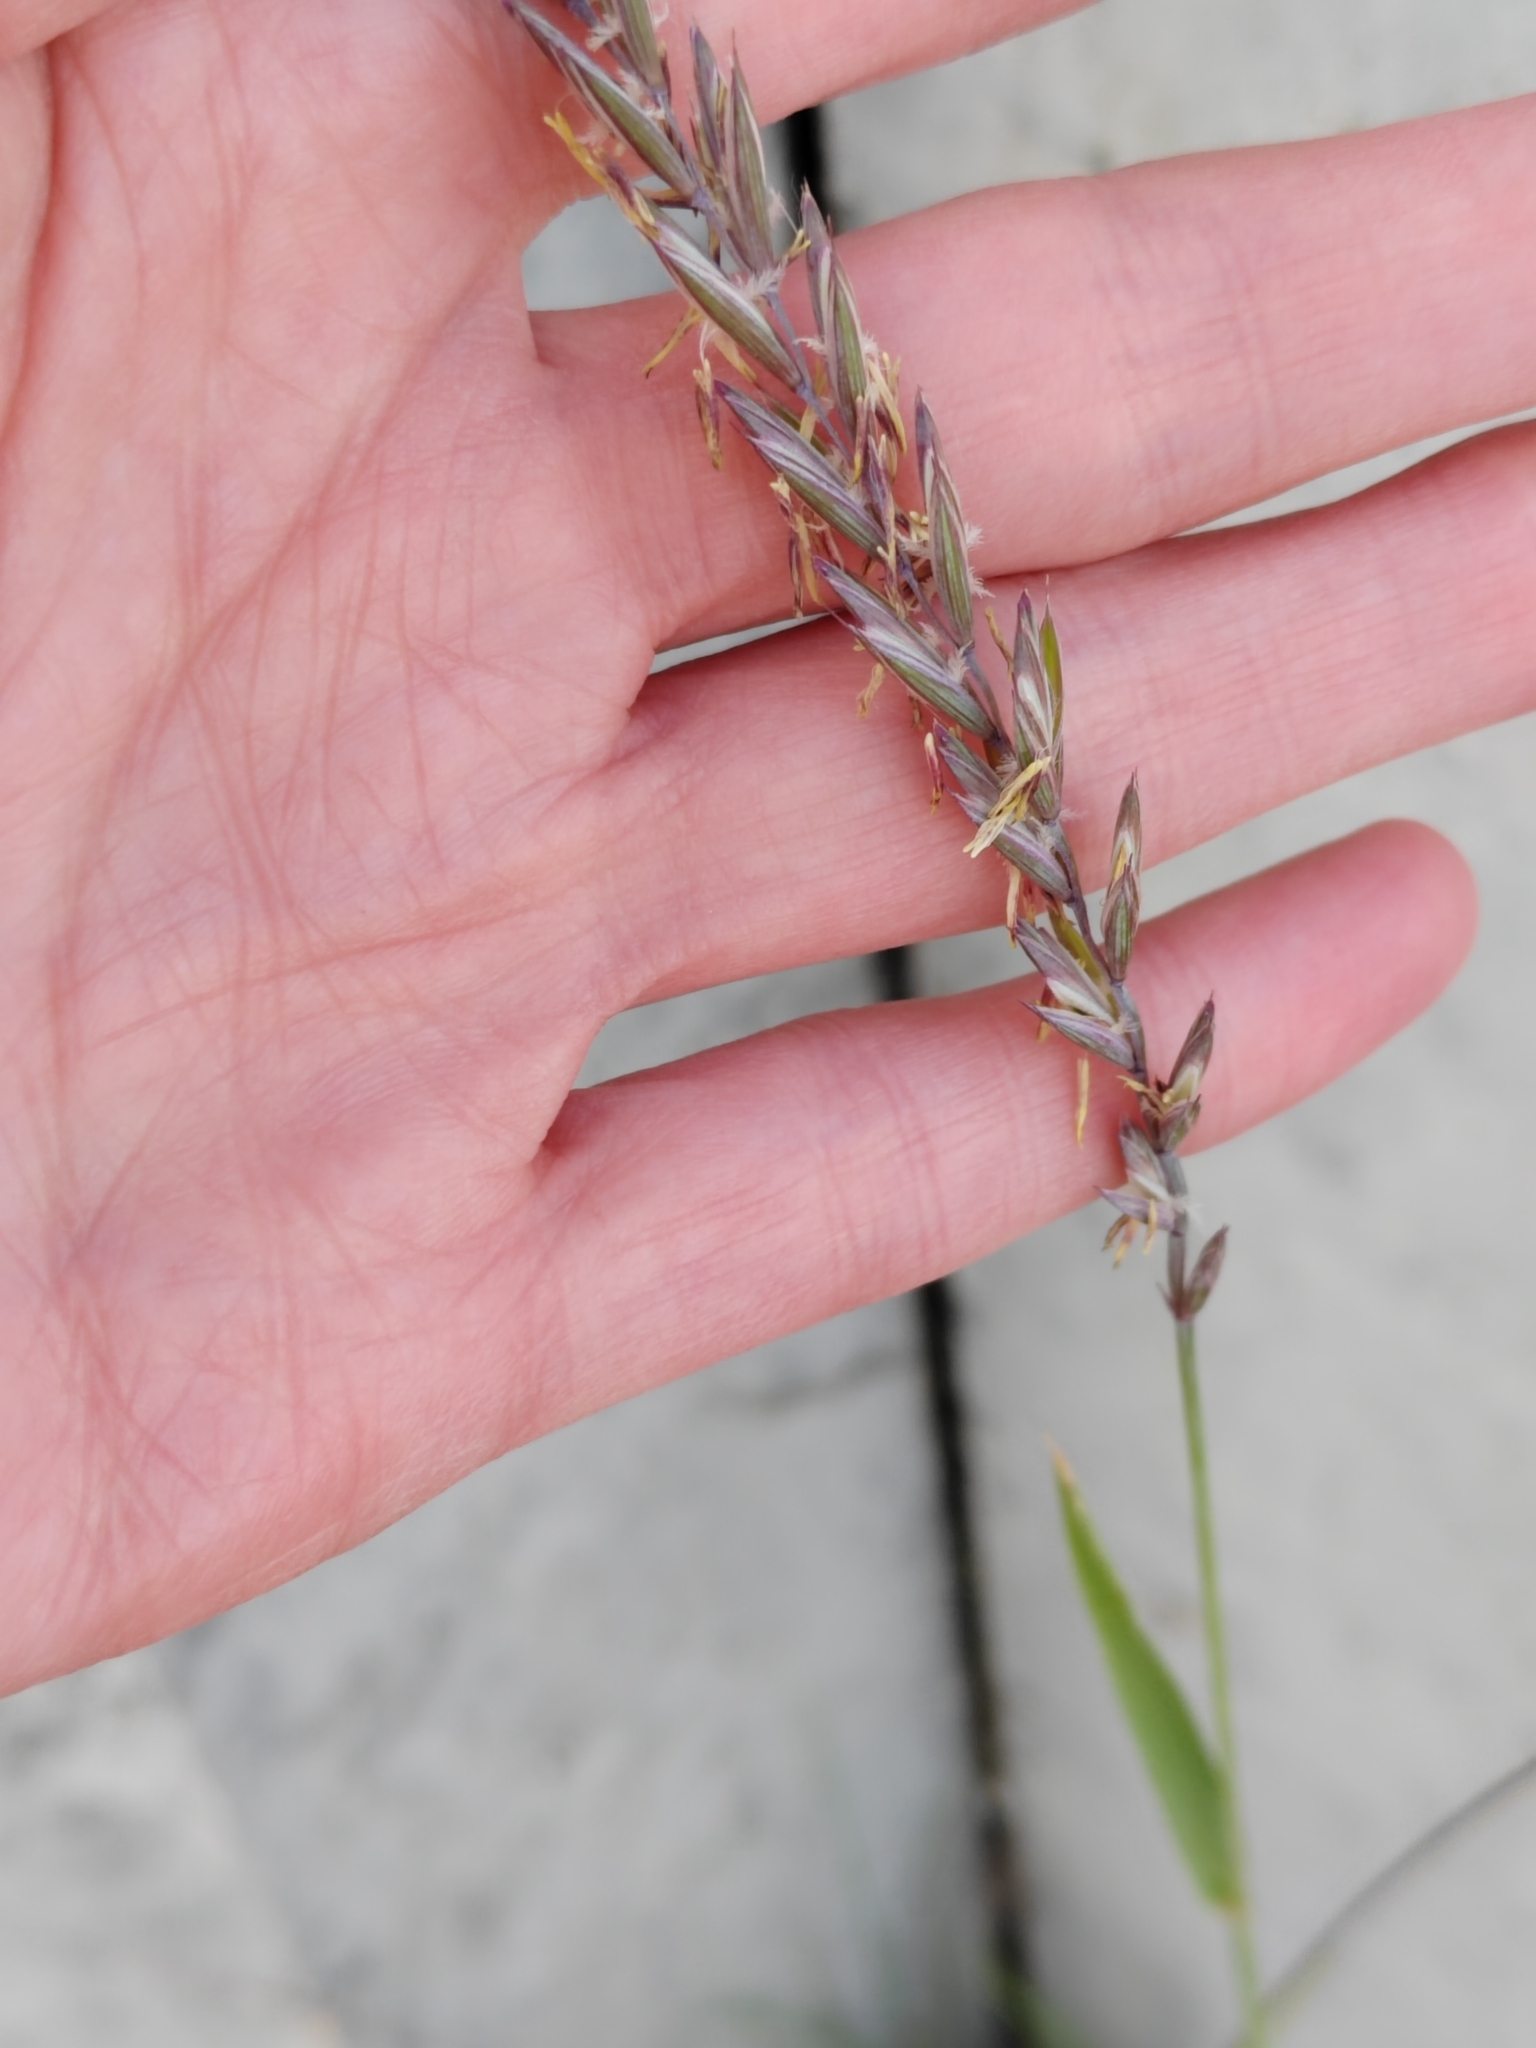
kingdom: Plantae
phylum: Tracheophyta
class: Liliopsida
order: Poales
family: Poaceae
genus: Elymus
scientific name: Elymus repens
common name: Quackgrass
